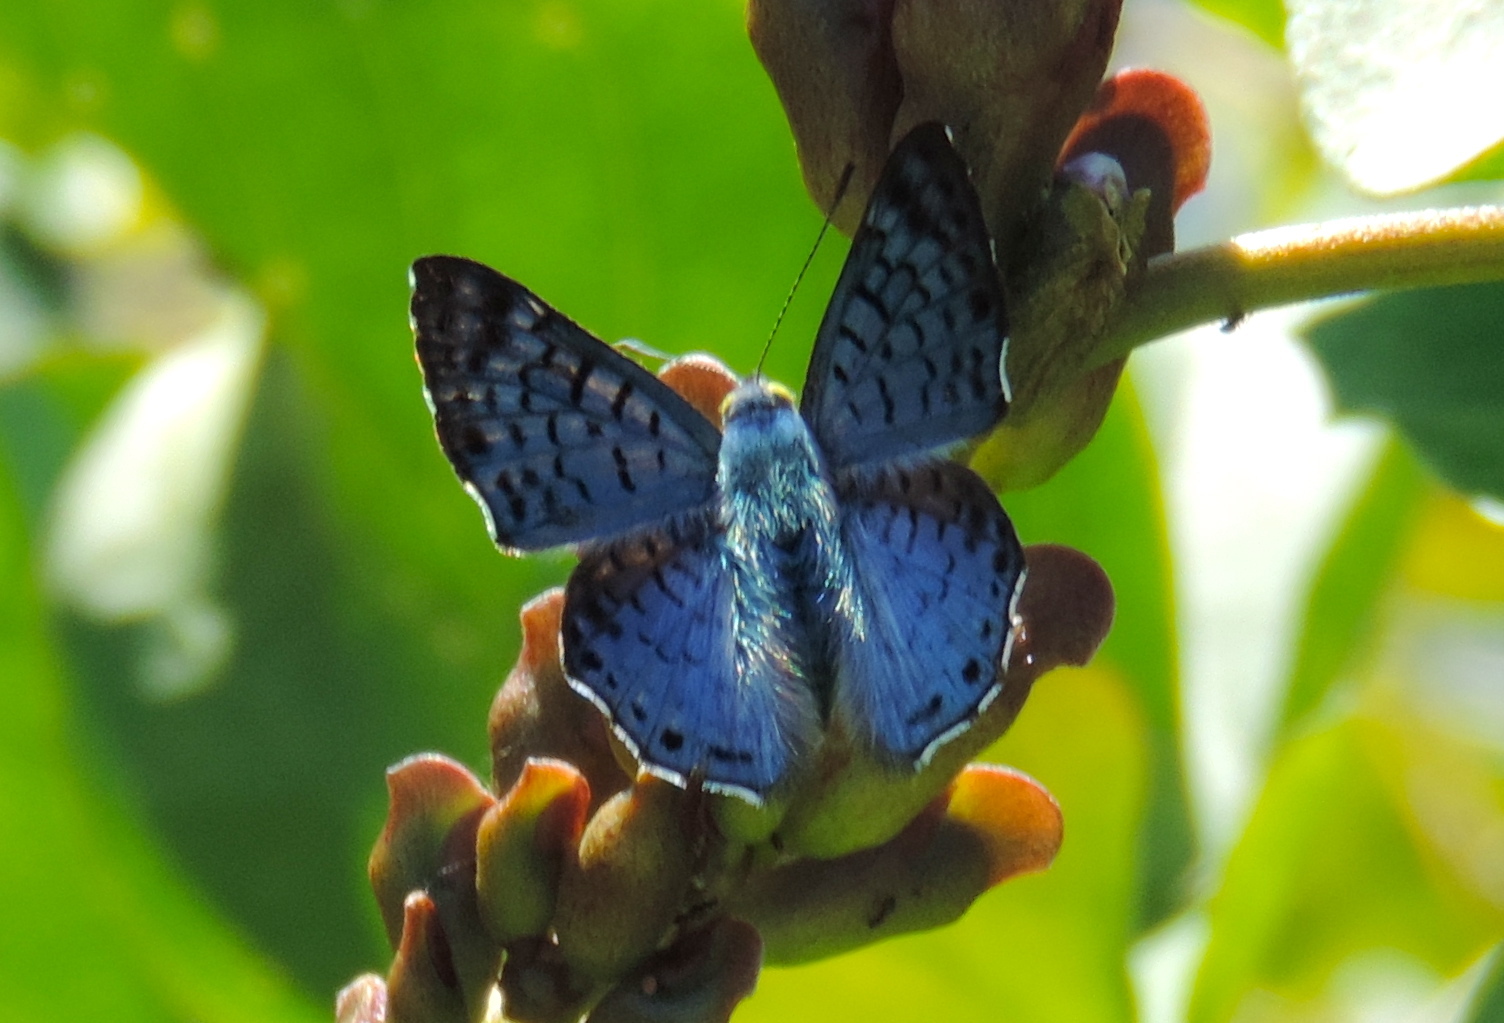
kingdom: Animalia
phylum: Arthropoda
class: Insecta
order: Lepidoptera
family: Riodinidae
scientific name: Riodinidae
